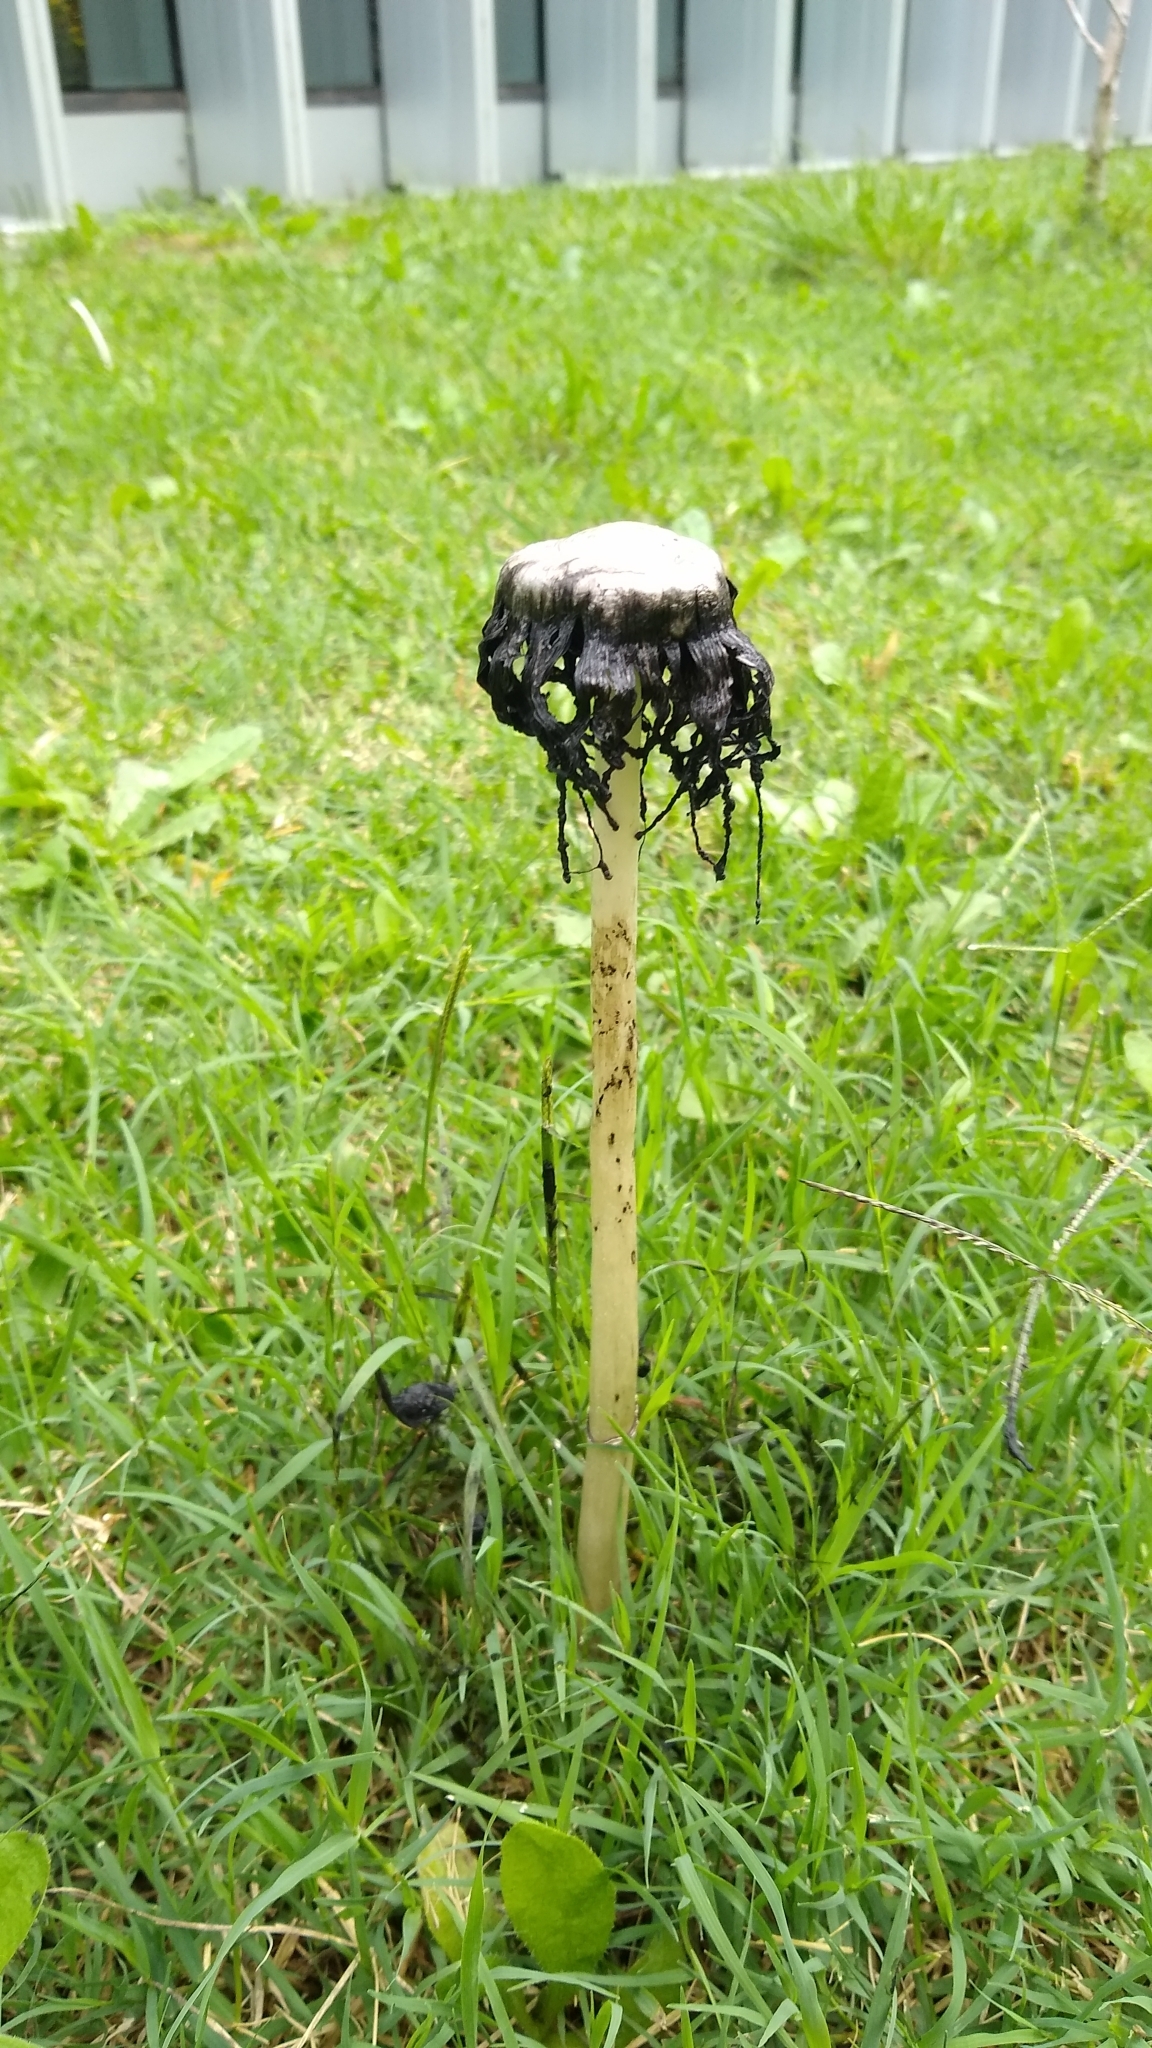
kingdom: Fungi
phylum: Basidiomycota
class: Agaricomycetes
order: Agaricales
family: Agaricaceae
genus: Coprinus
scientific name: Coprinus comatus
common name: Lawyer's wig
